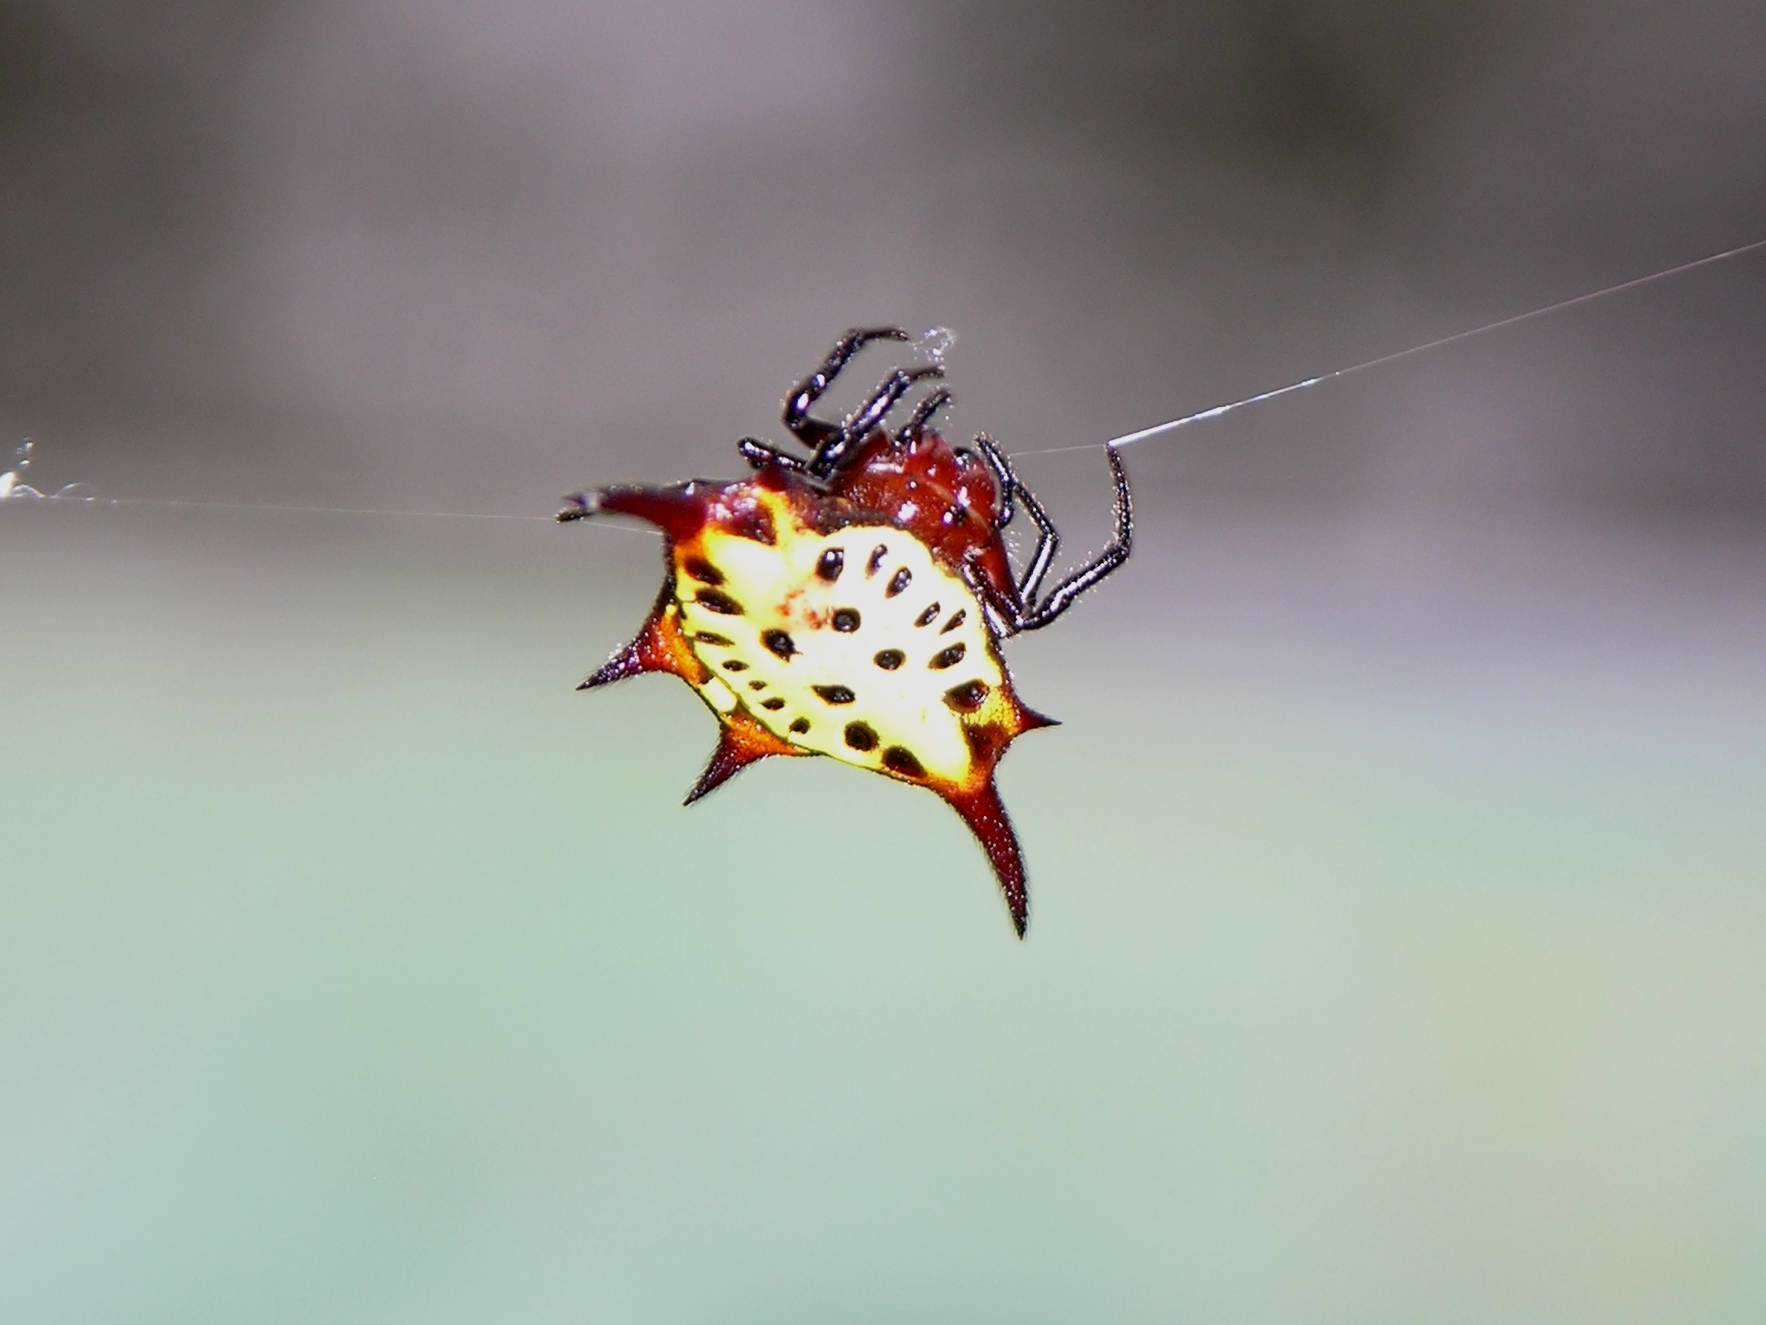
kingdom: Animalia
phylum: Arthropoda
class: Arachnida
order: Araneae
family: Araneidae
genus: Gasteracantha
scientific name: Gasteracantha sanguinolenta
